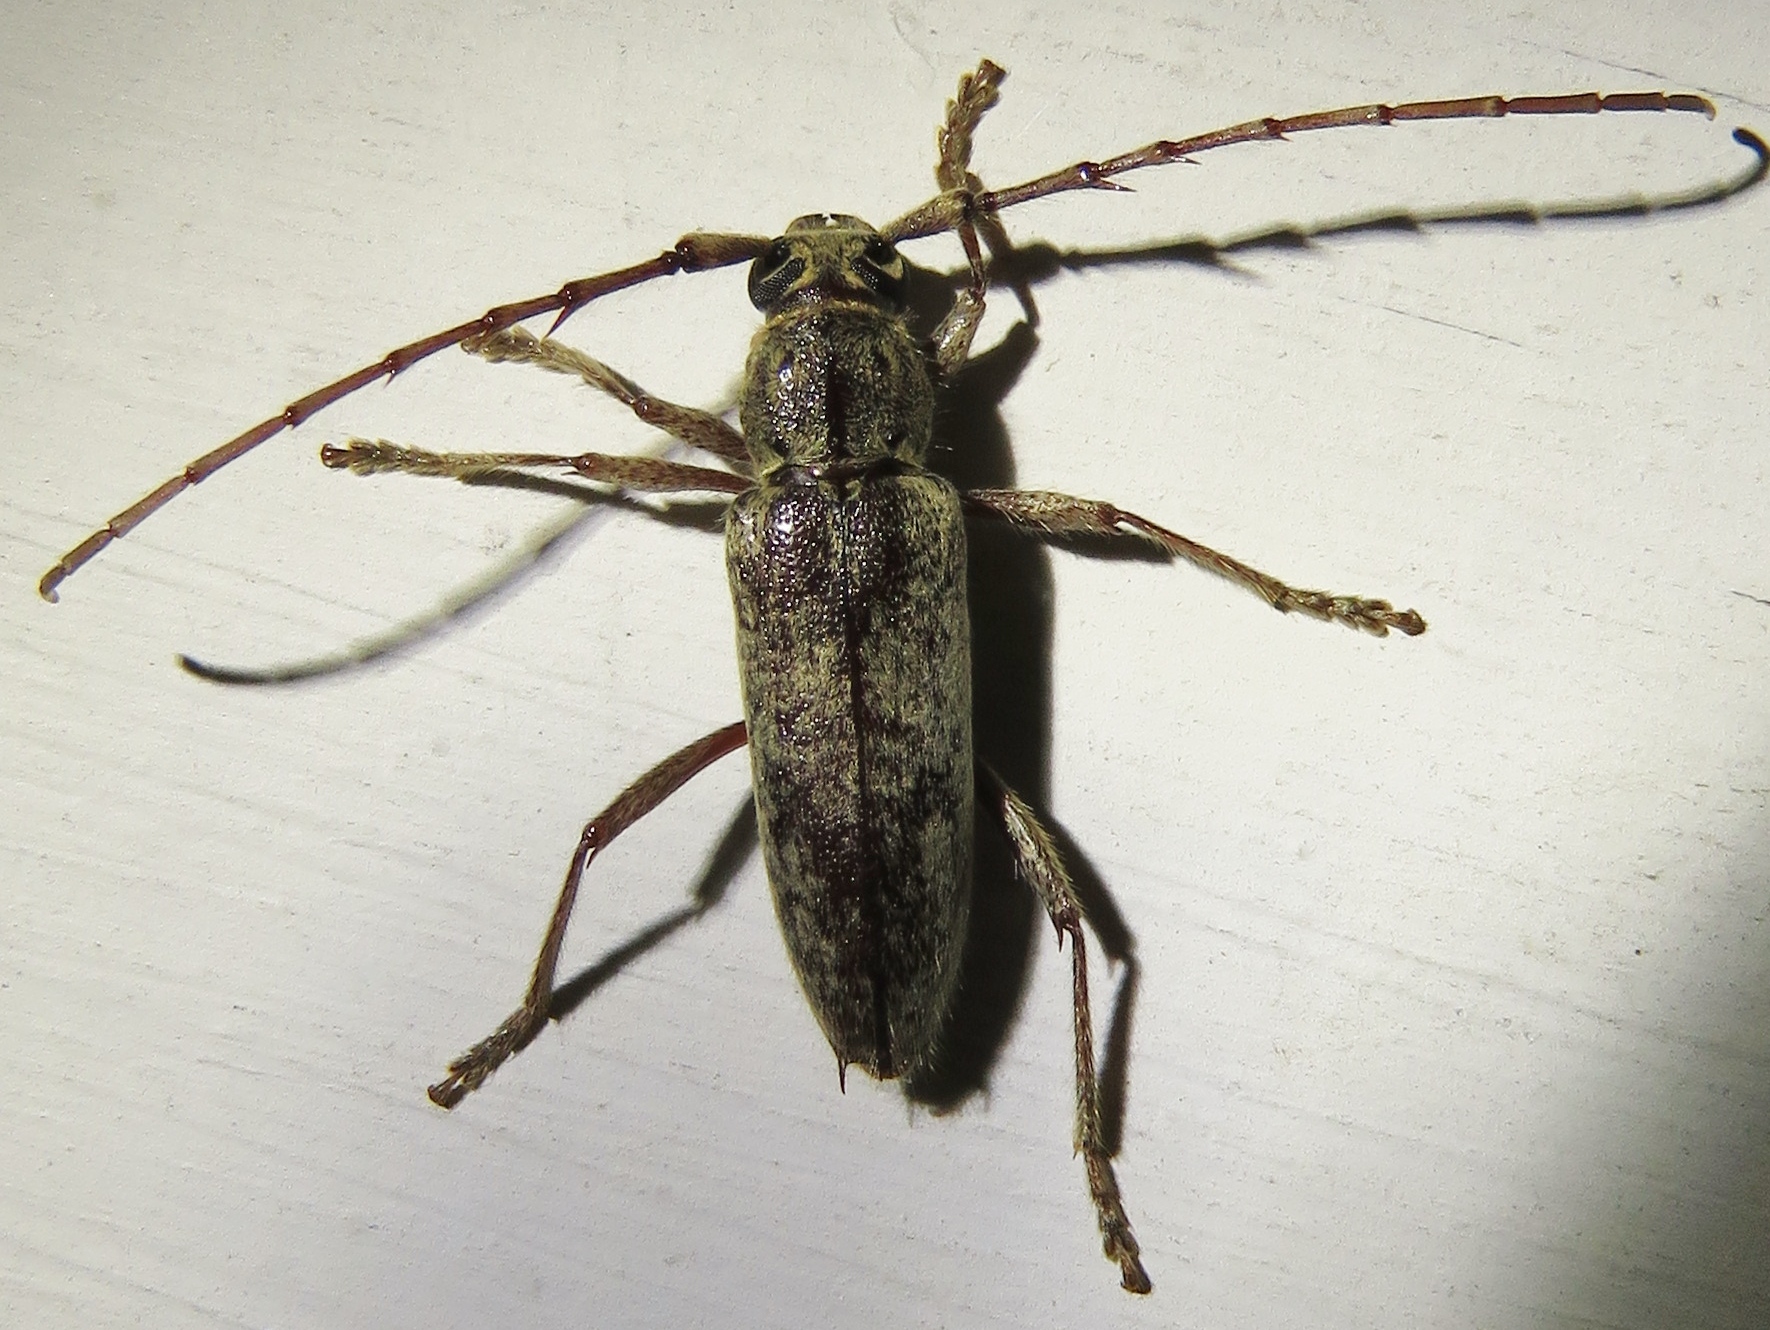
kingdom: Animalia
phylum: Arthropoda
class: Insecta
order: Coleoptera
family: Cerambycidae
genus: Elaphidion
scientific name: Elaphidion mucronatum
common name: Spined oak borer
